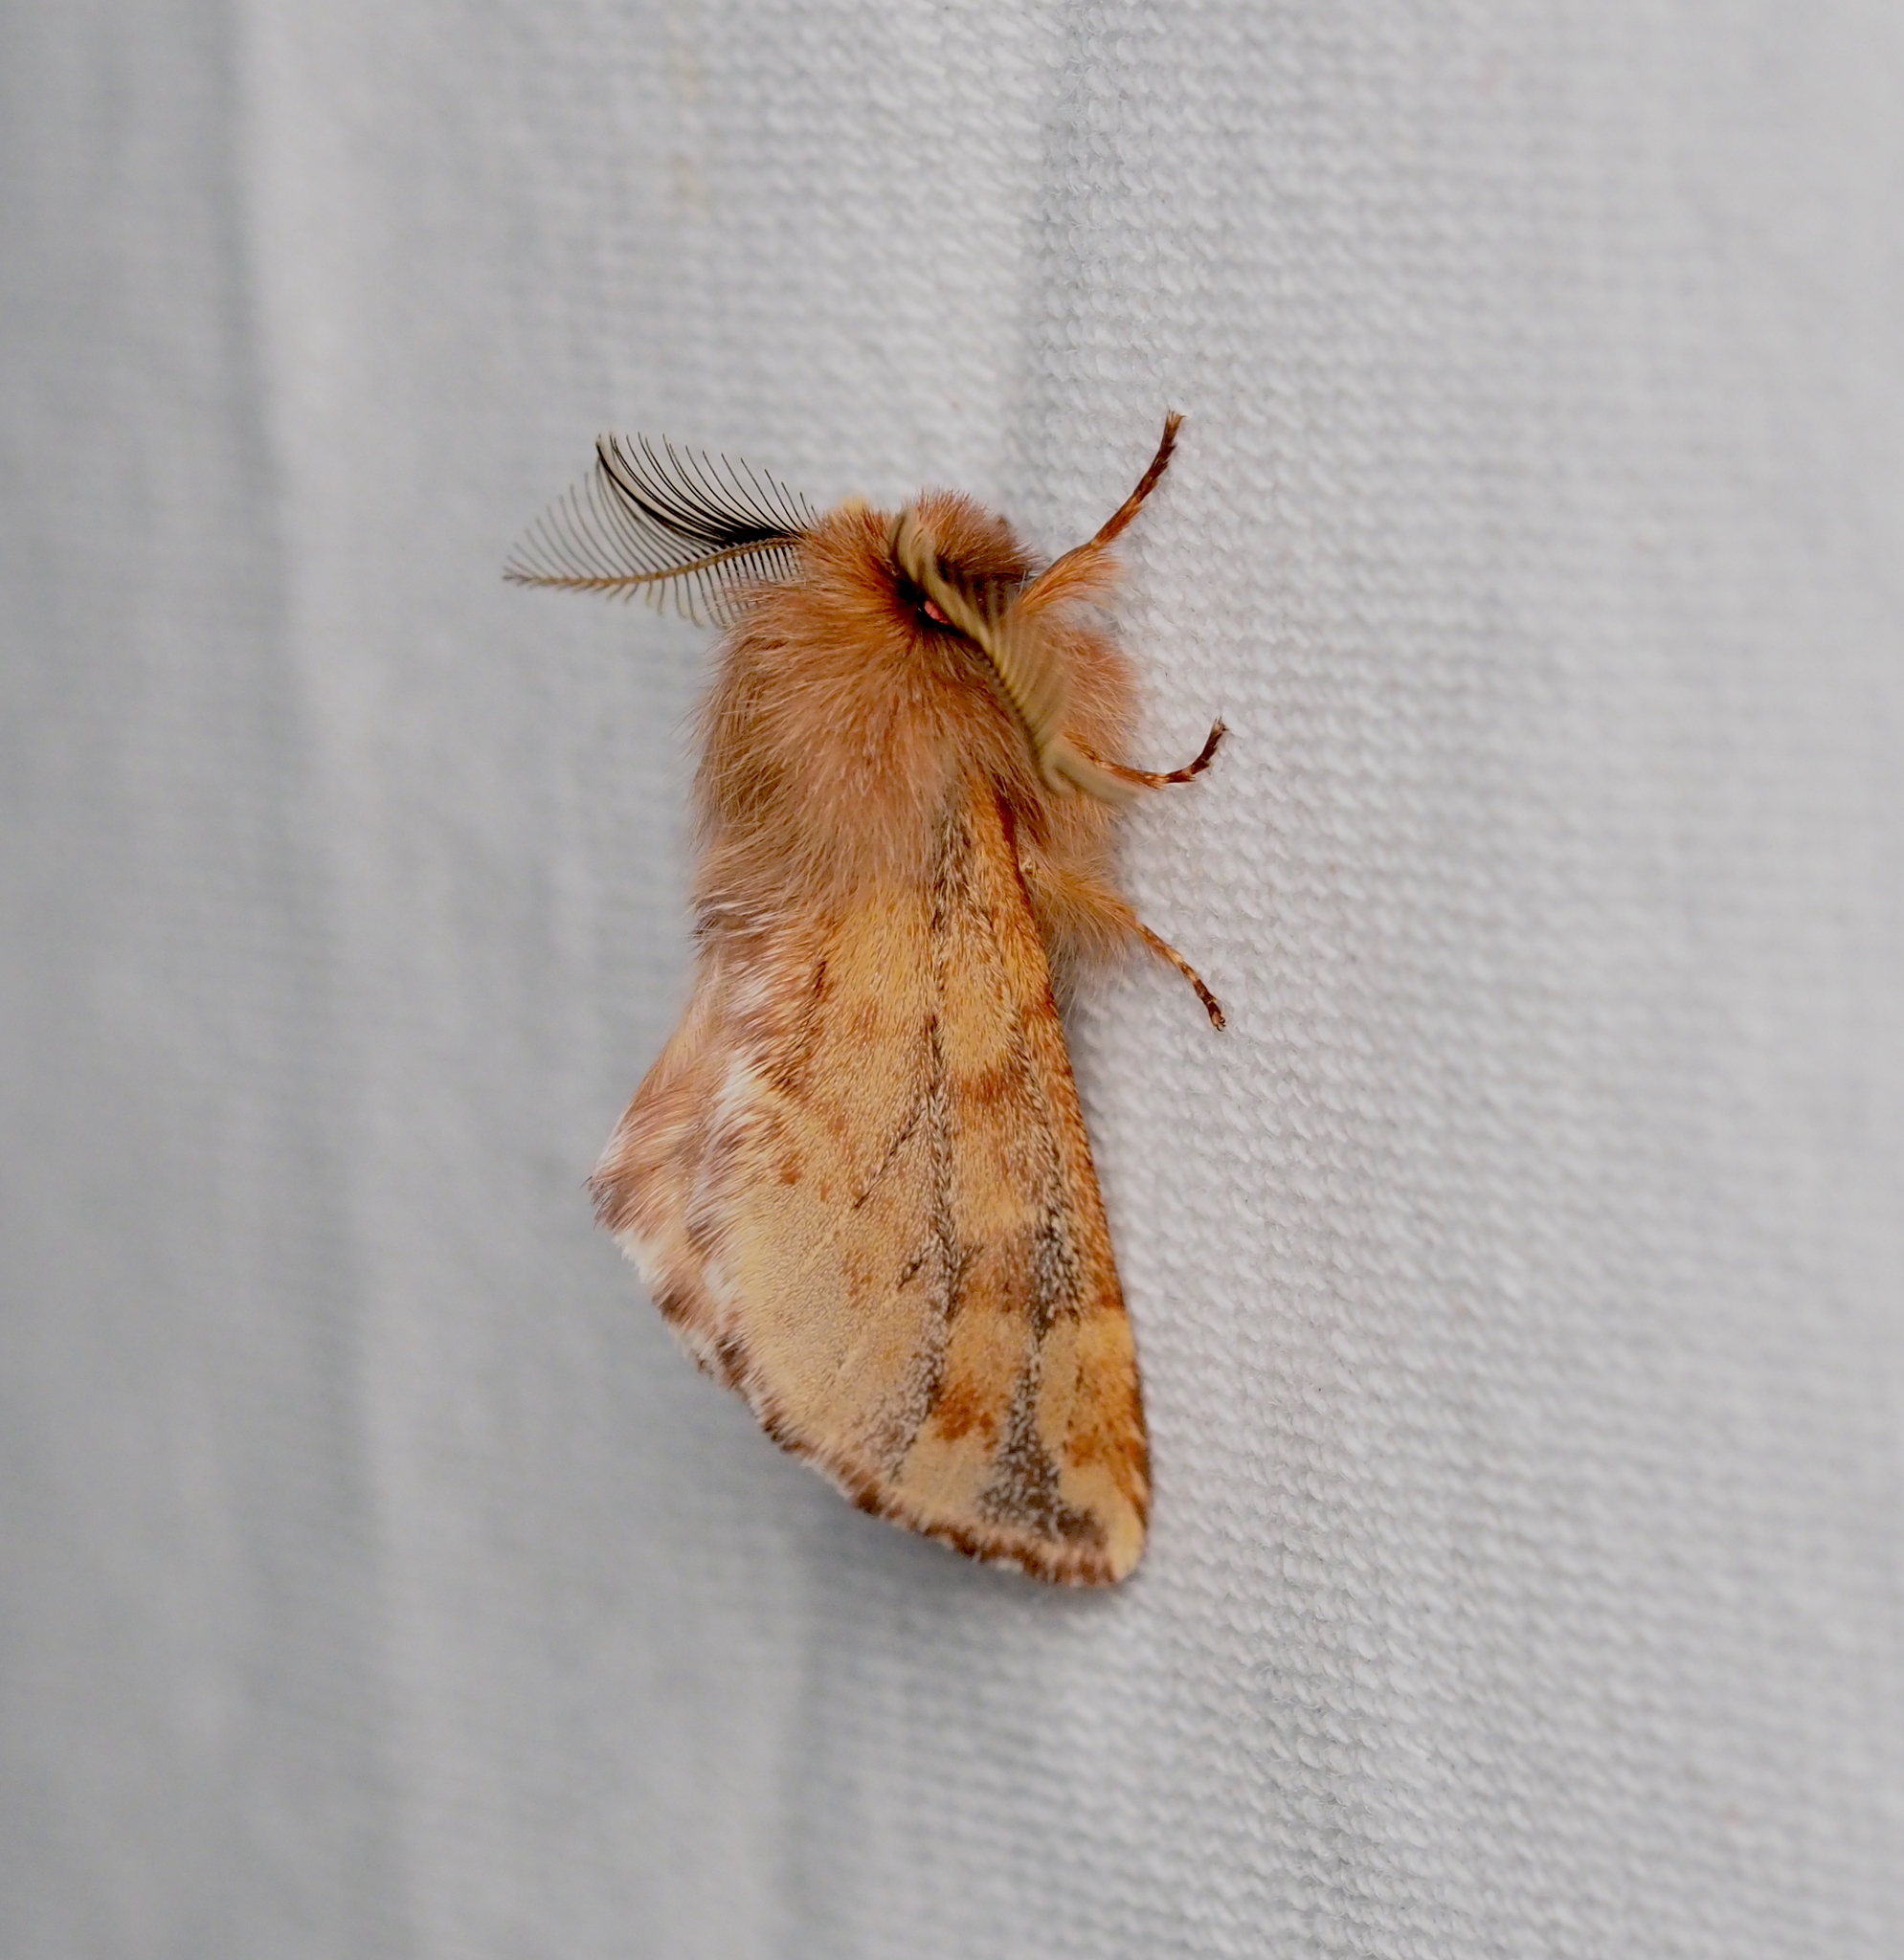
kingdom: Animalia
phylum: Arthropoda
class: Insecta
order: Lepidoptera
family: Notodontidae
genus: Ptilophora
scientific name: Ptilophora plumigera
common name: Plumed prominent
